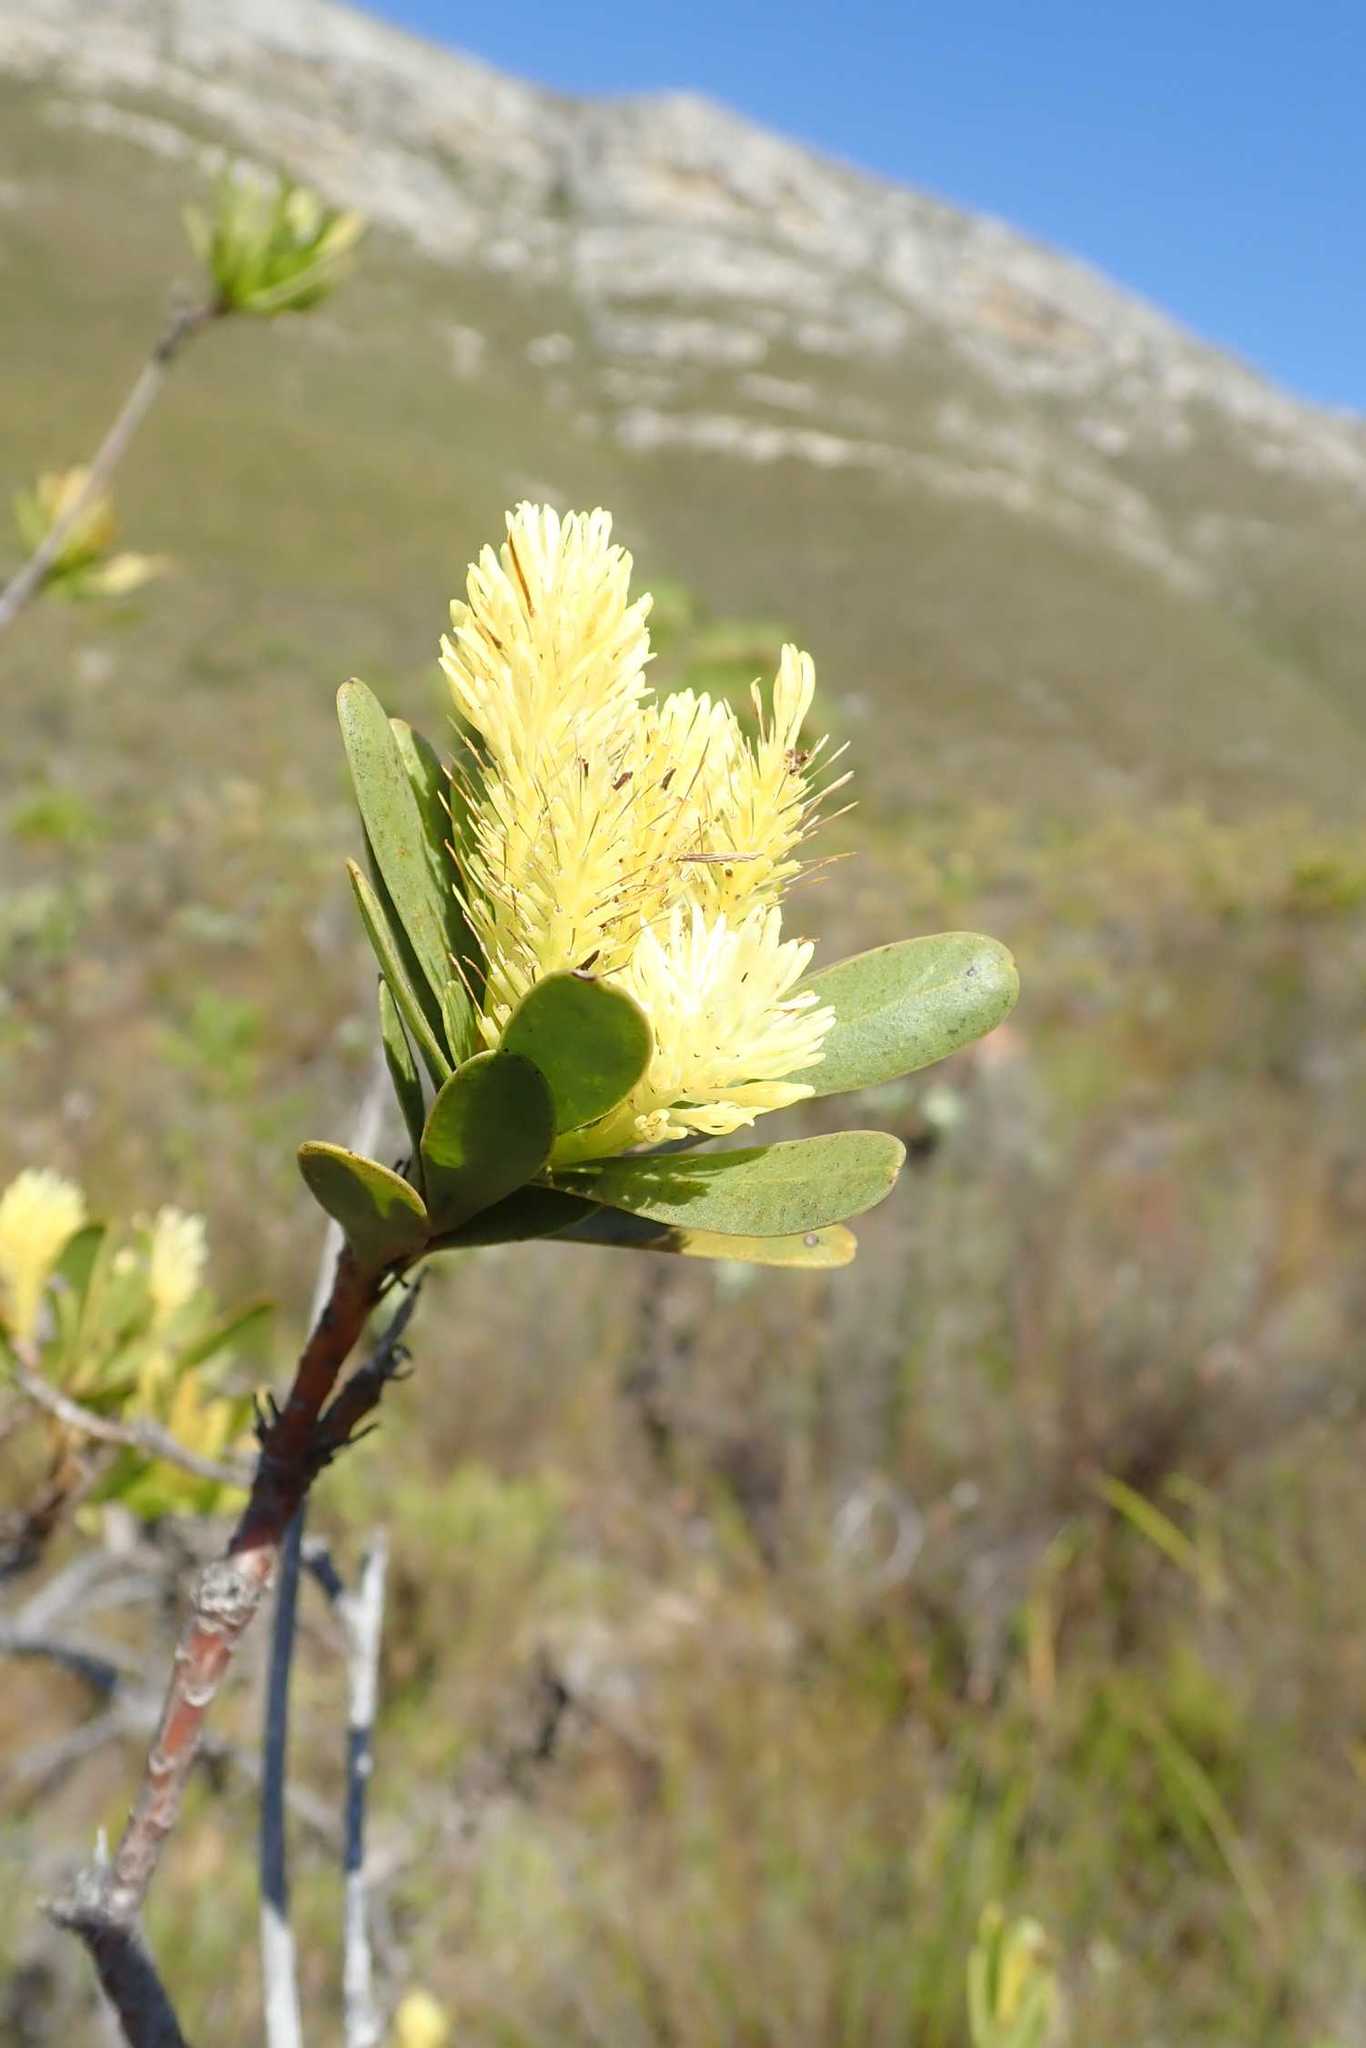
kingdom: Plantae
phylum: Tracheophyta
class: Magnoliopsida
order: Proteales
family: Proteaceae
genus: Aulax
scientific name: Aulax umbellata
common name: Broad-leaf featherbush
